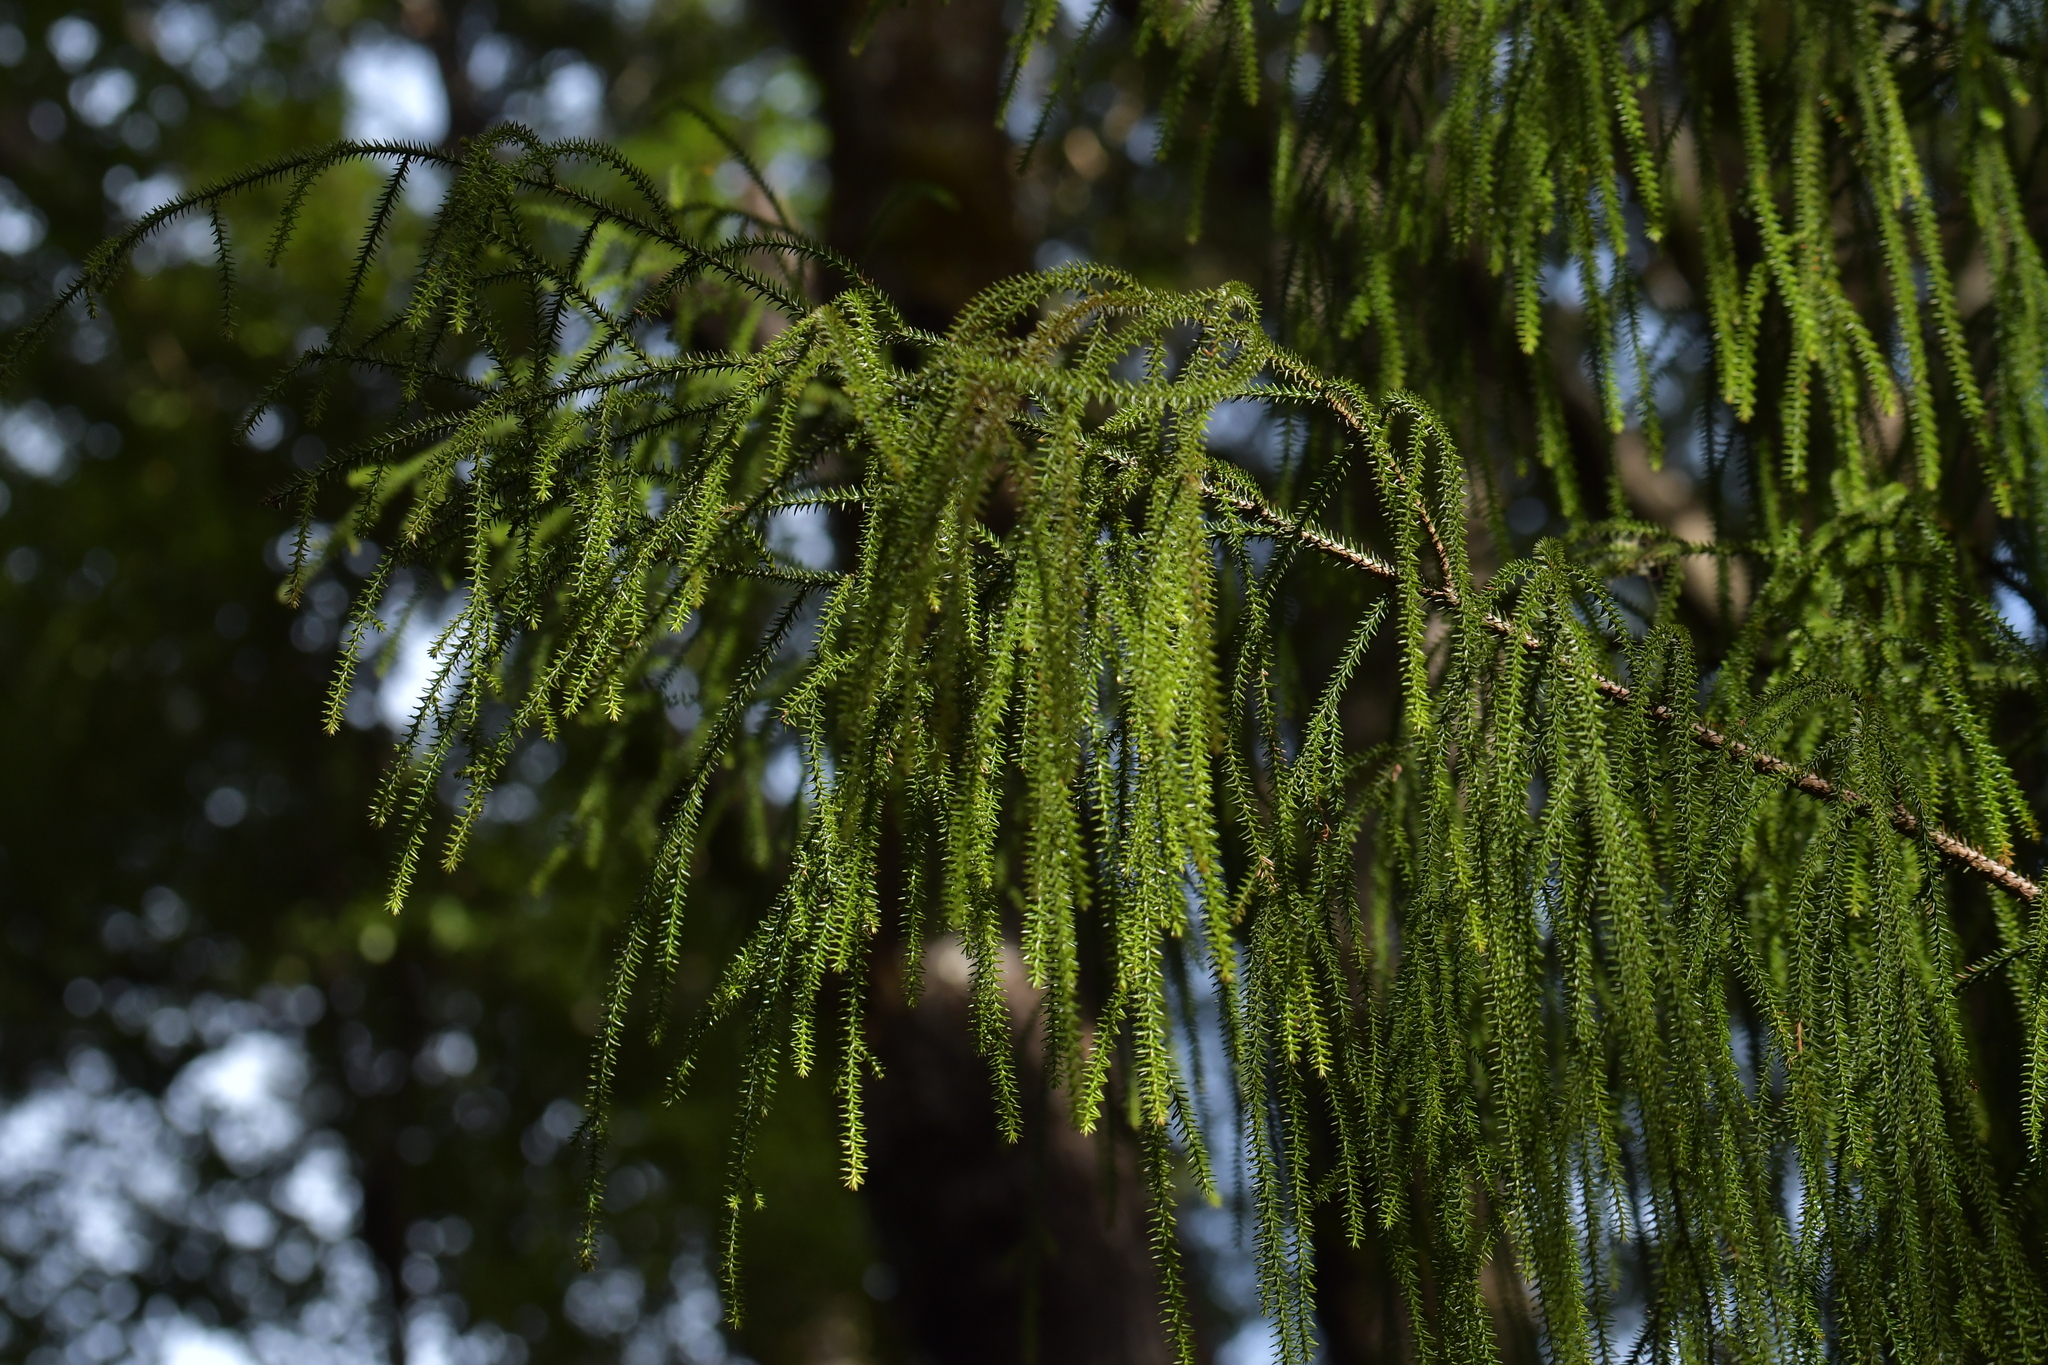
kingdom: Plantae
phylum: Tracheophyta
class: Pinopsida
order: Pinales
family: Podocarpaceae
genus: Dacrydium
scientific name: Dacrydium cupressinum
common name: Red pine
